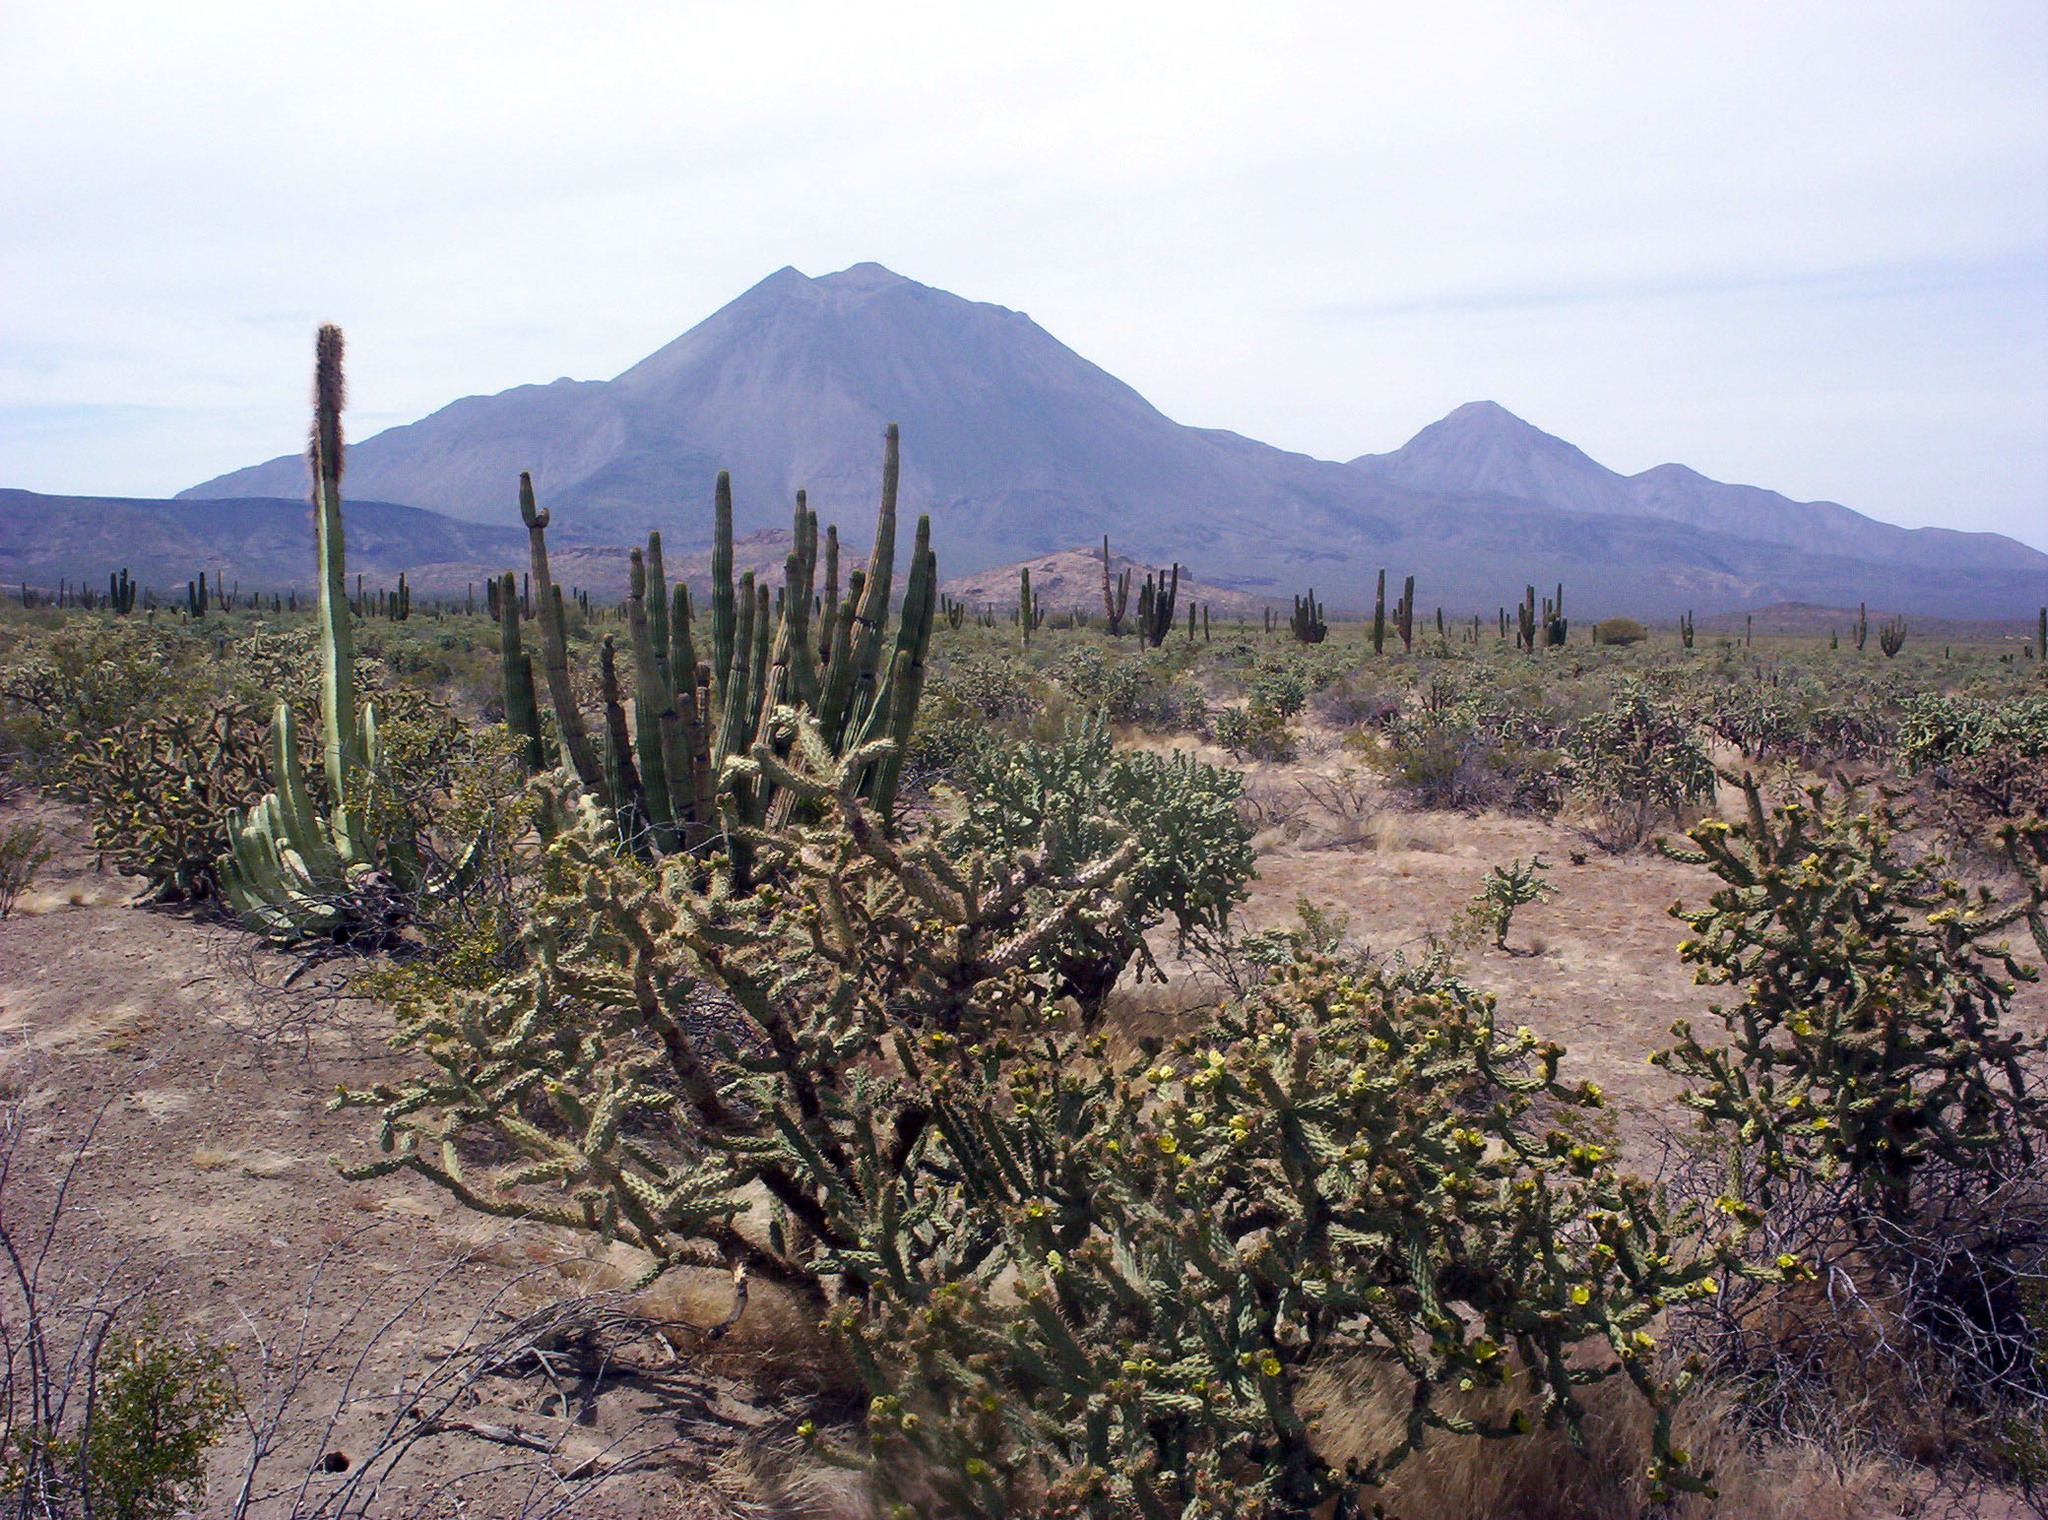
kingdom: Plantae
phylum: Tracheophyta
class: Magnoliopsida
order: Caryophyllales
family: Cactaceae
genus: Cylindropuntia
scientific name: Cylindropuntia alcahes
